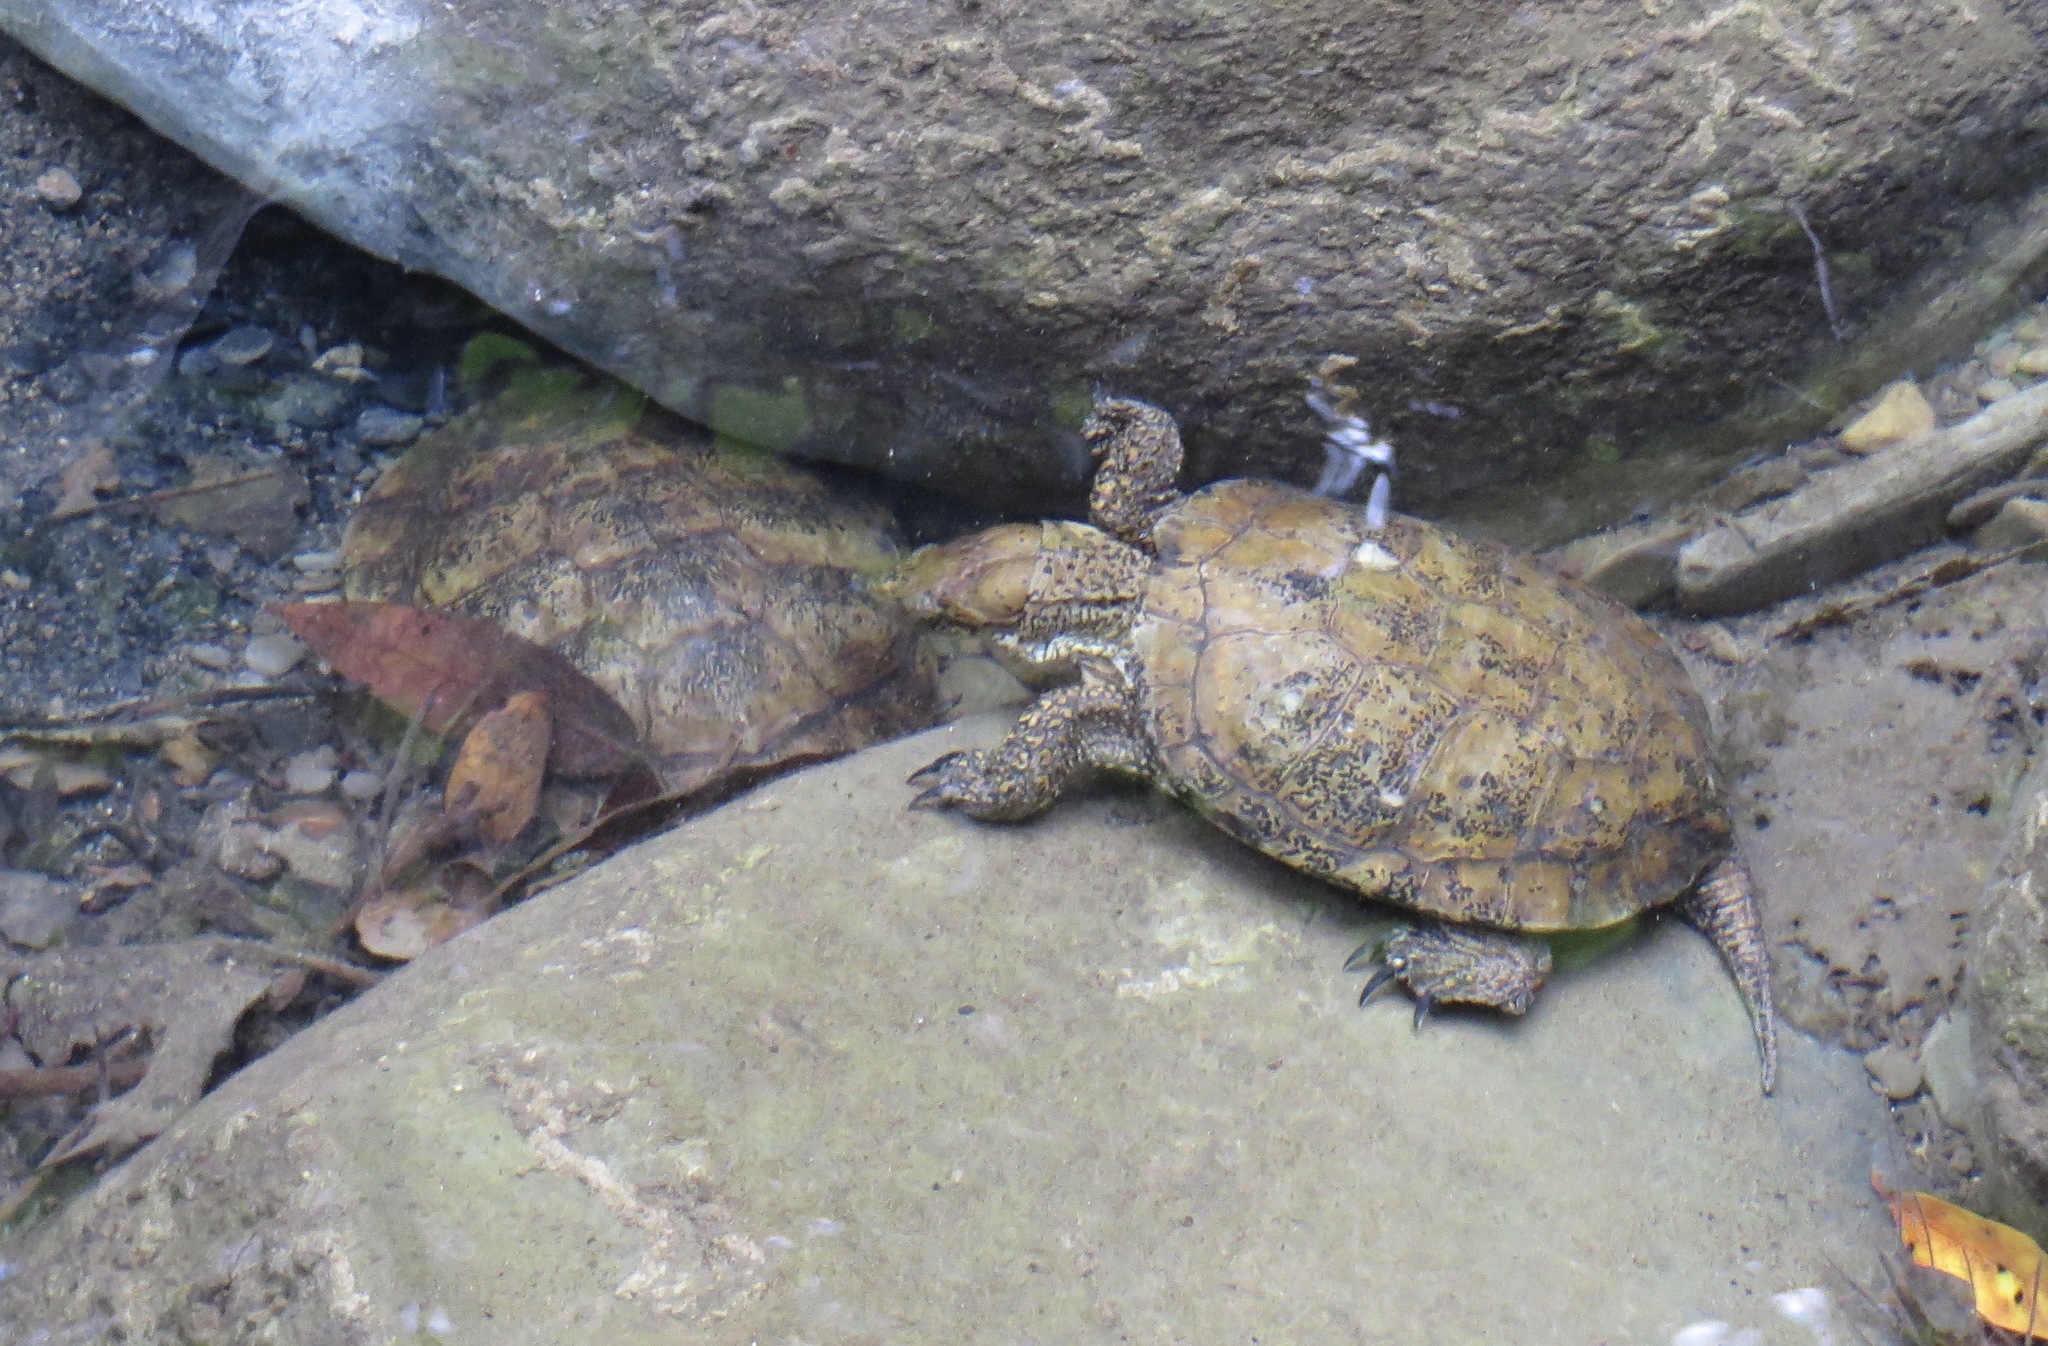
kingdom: Animalia
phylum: Chordata
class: Testudines
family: Emydidae
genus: Actinemys
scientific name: Actinemys marmorata
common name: Western pond turtle
